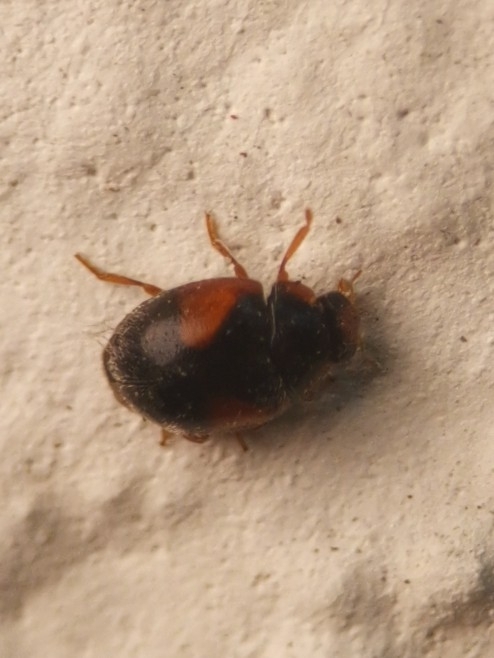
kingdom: Animalia
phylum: Arthropoda
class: Insecta
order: Coleoptera
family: Coccinellidae
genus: Scymnus
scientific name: Scymnus interruptus
